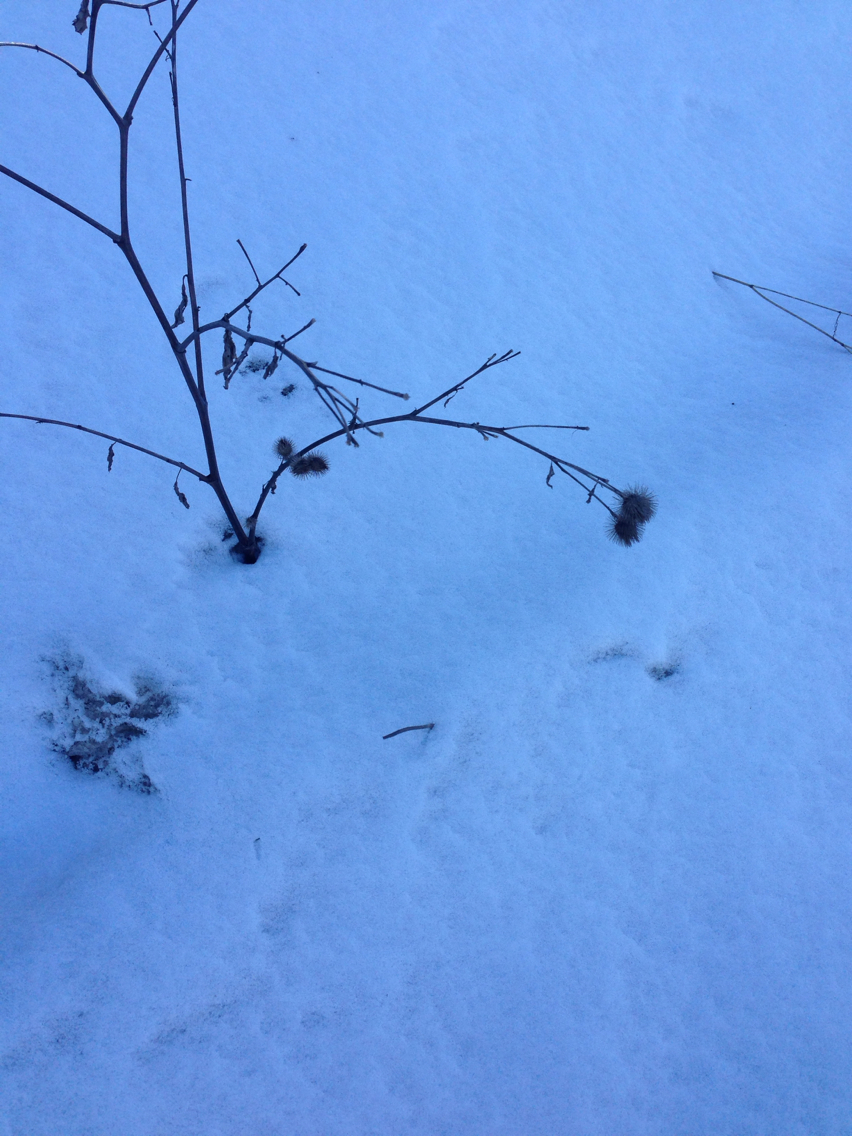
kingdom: Plantae
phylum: Tracheophyta
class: Magnoliopsida
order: Asterales
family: Asteraceae
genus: Arctium
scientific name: Arctium lappa
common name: Greater burdock
